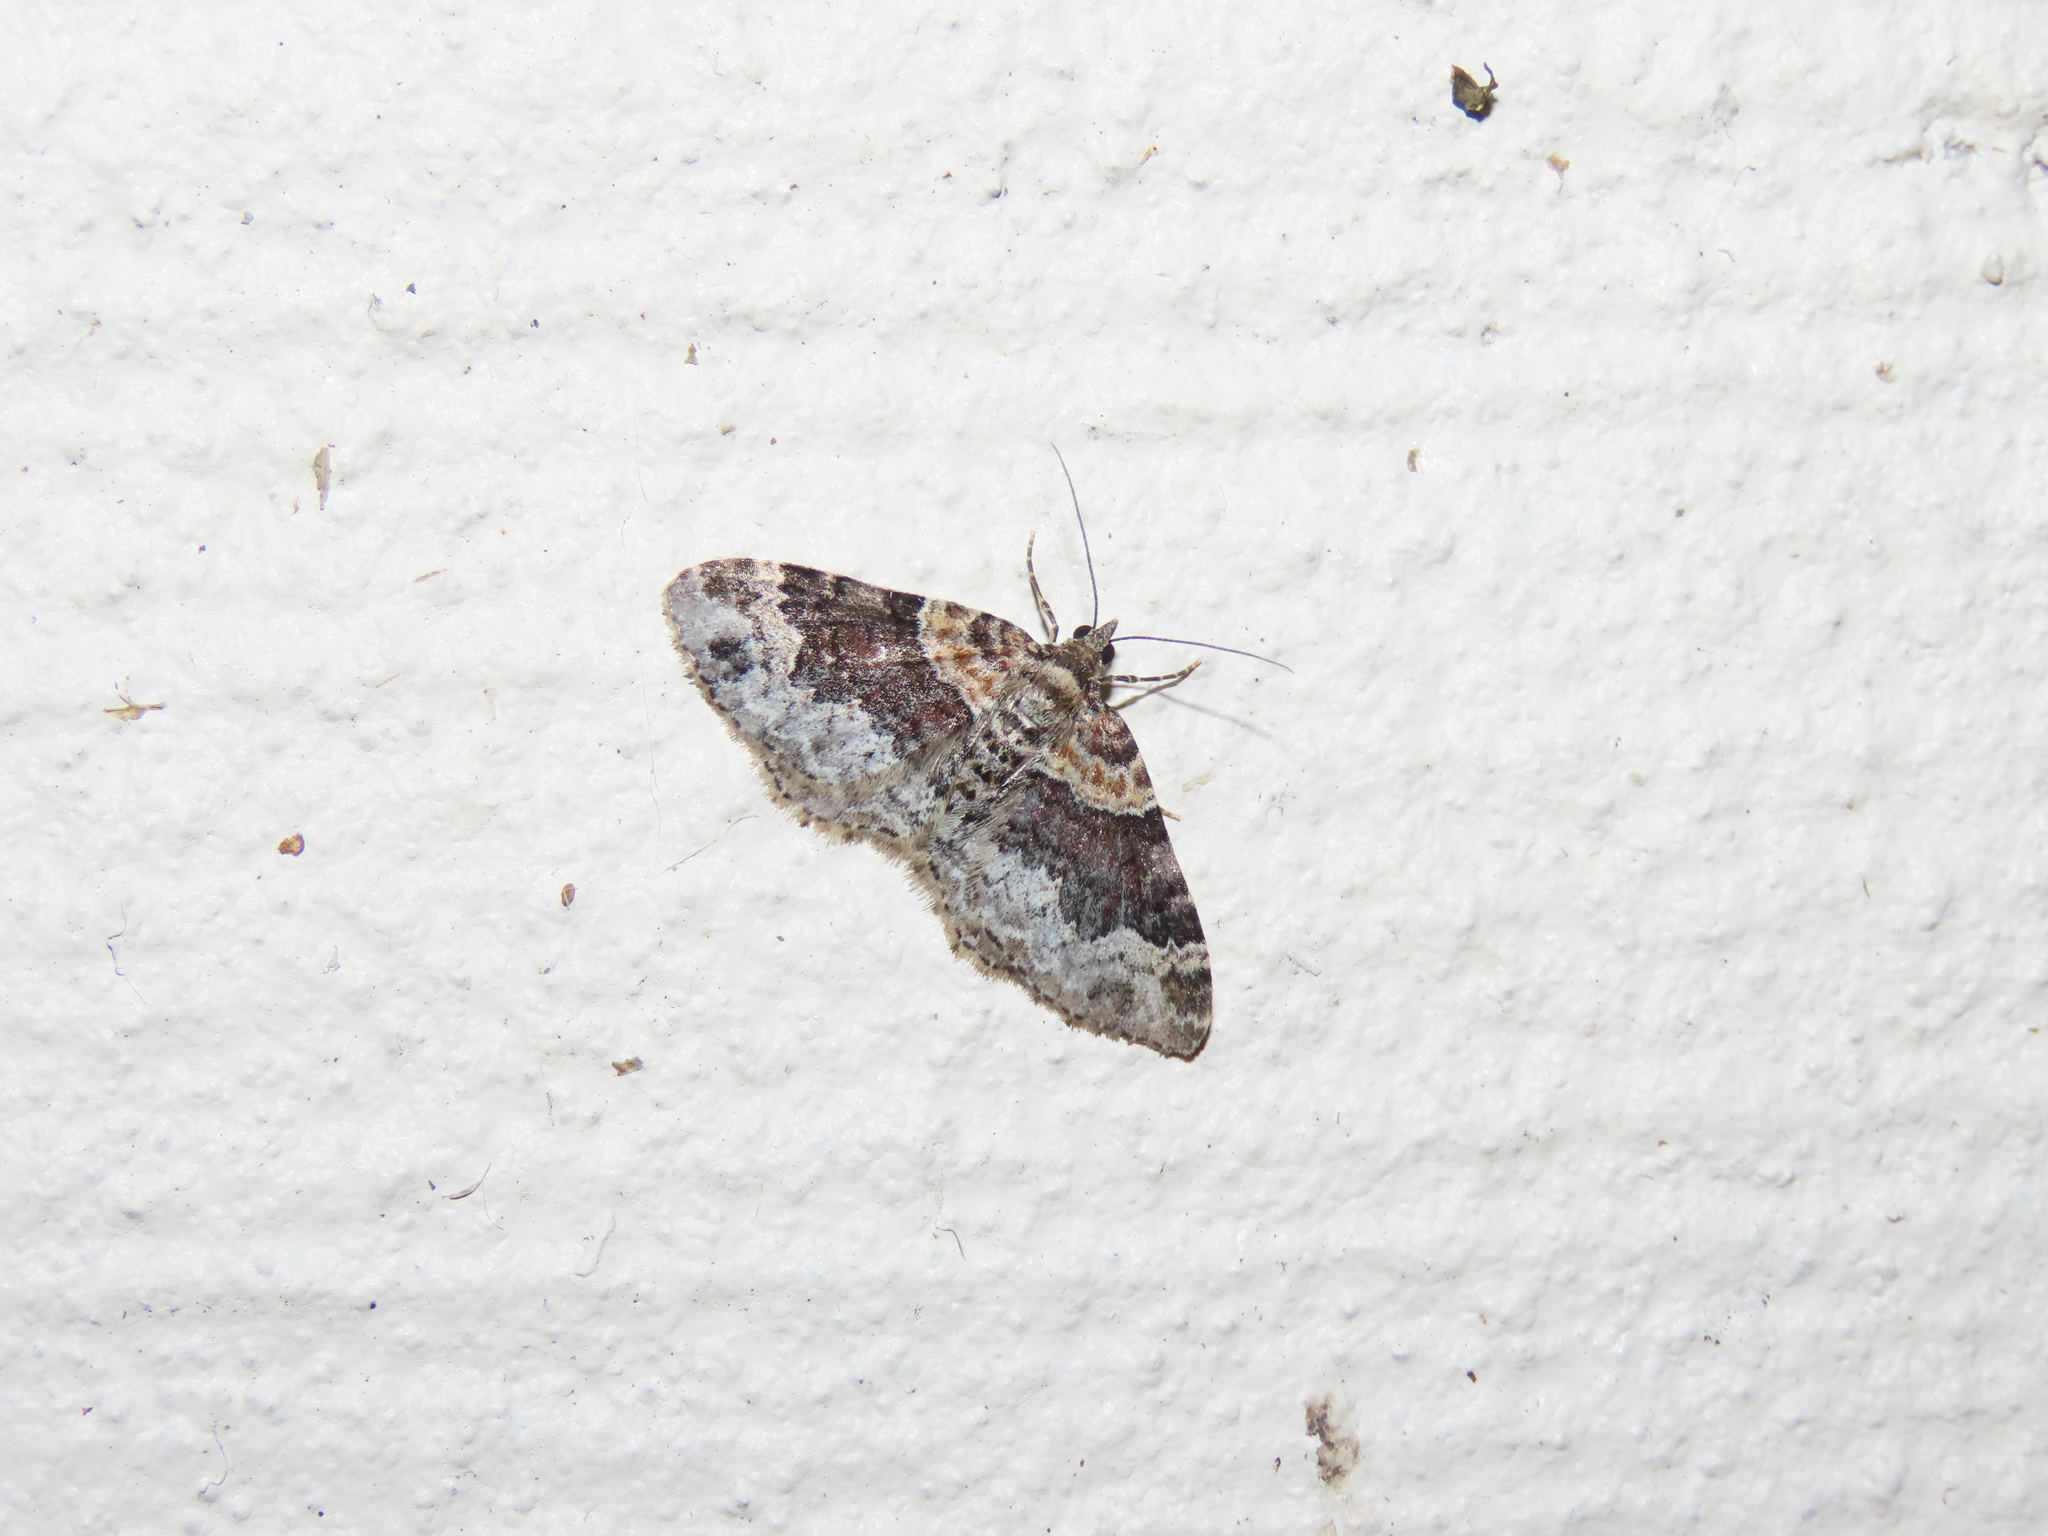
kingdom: Animalia
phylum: Arthropoda
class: Insecta
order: Lepidoptera
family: Geometridae
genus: Xanthorhoe
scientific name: Xanthorhoe ferrugata
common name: Dark-barred twin-spot carpet
